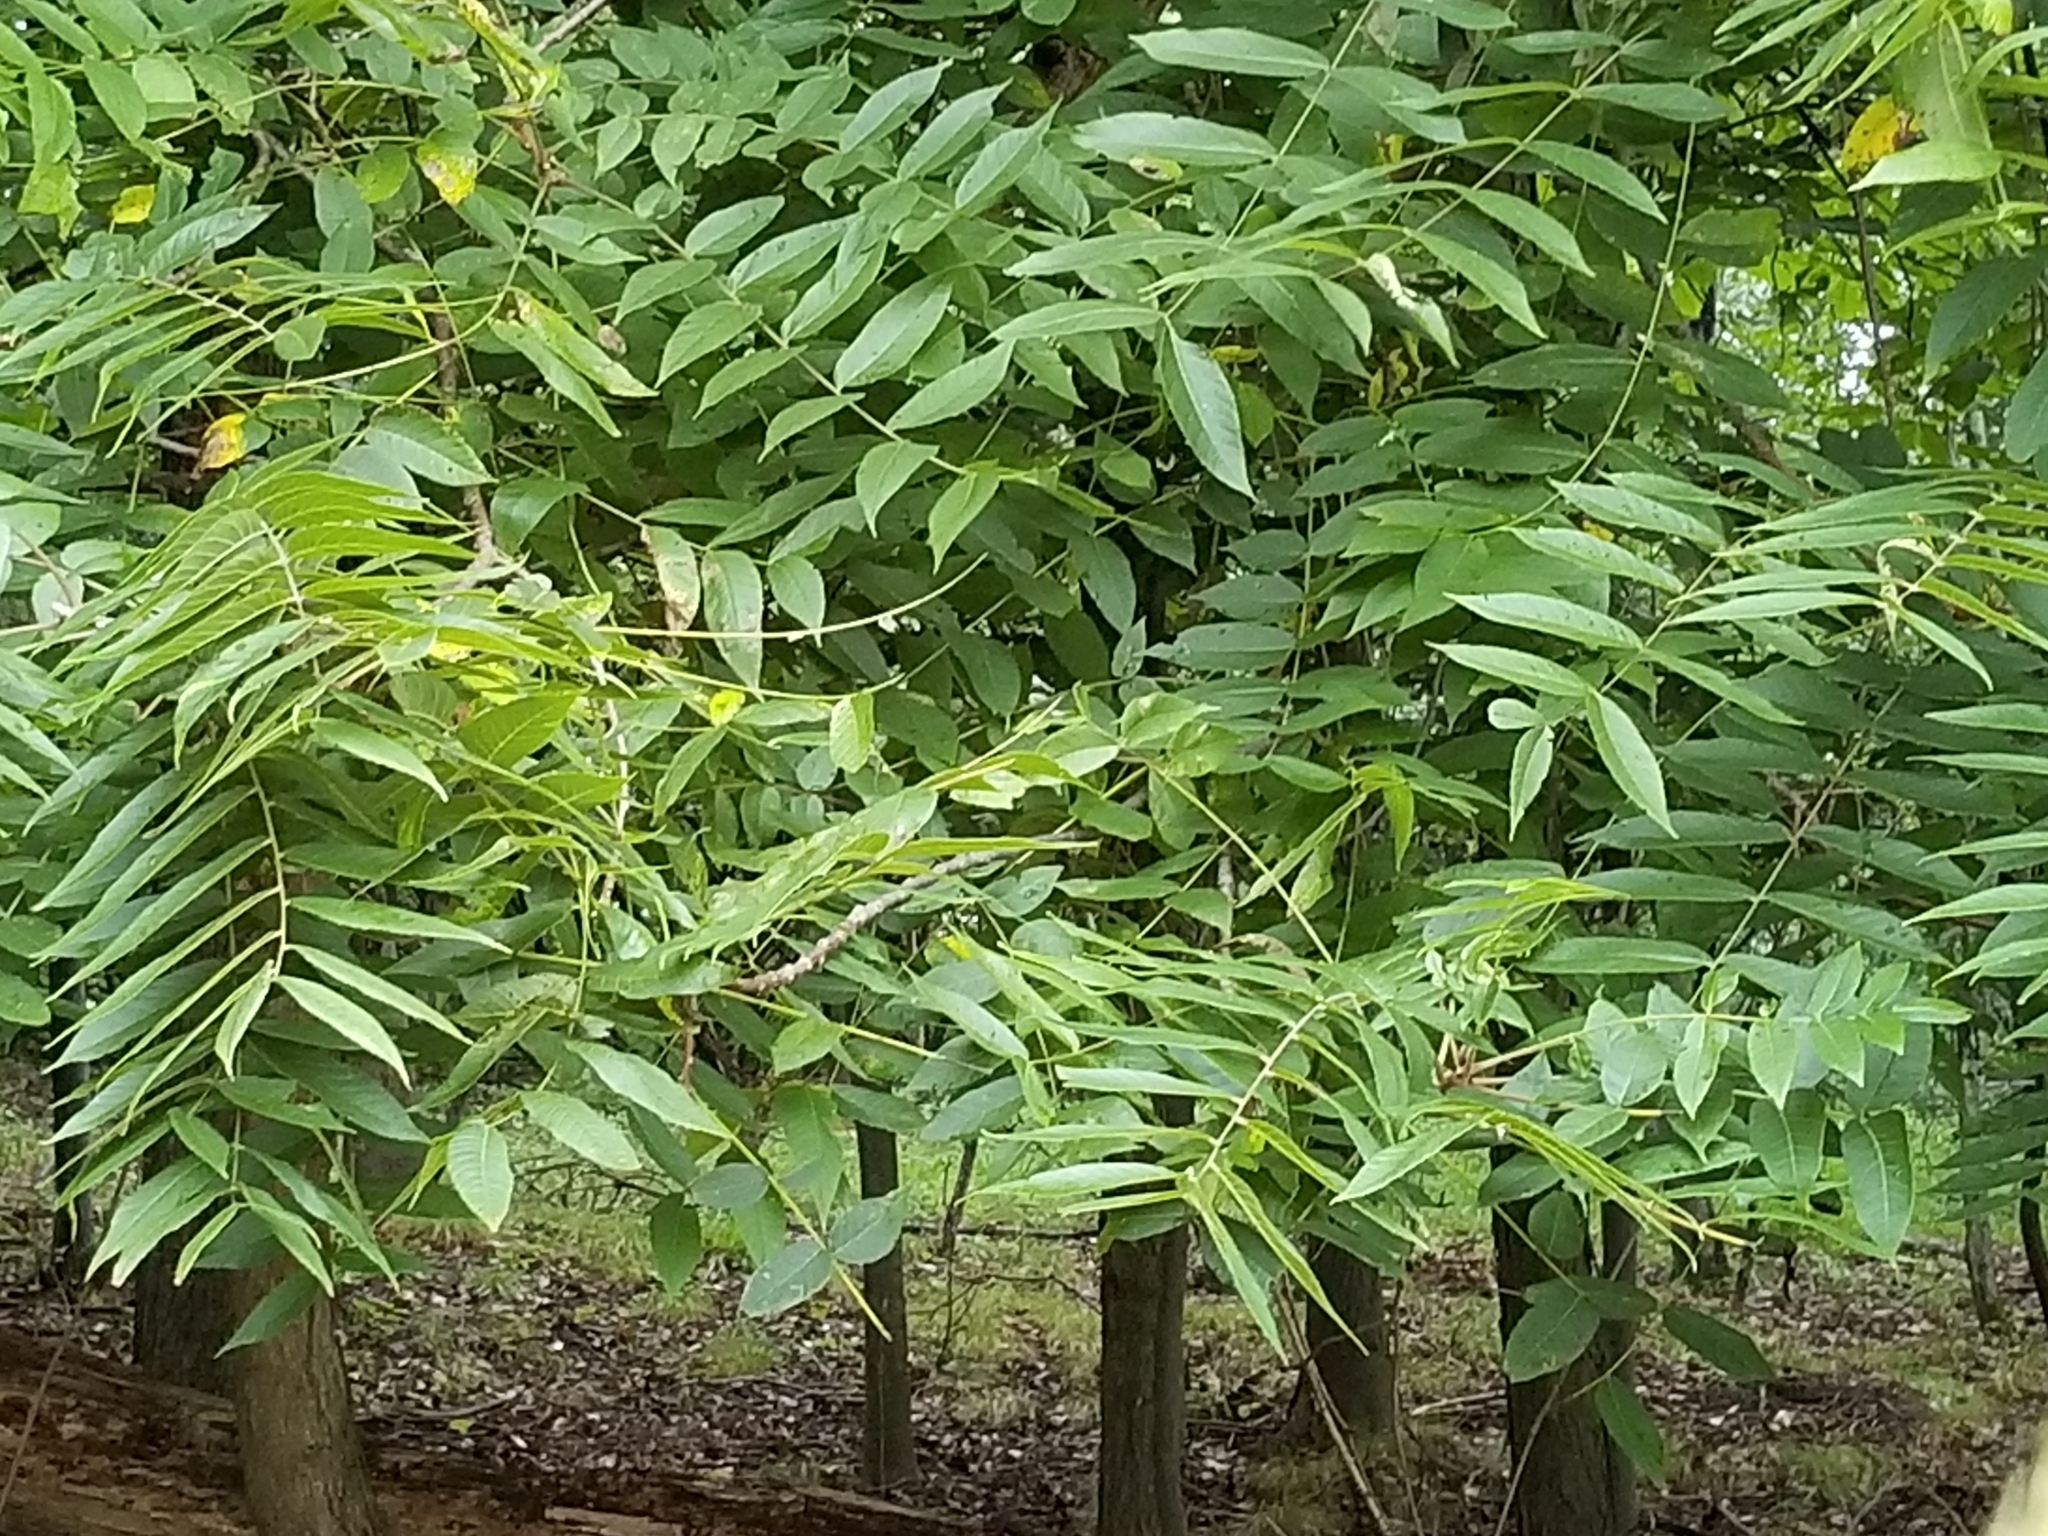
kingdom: Plantae
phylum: Tracheophyta
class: Magnoliopsida
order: Fagales
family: Juglandaceae
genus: Juglans
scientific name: Juglans nigra
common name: Black walnut
